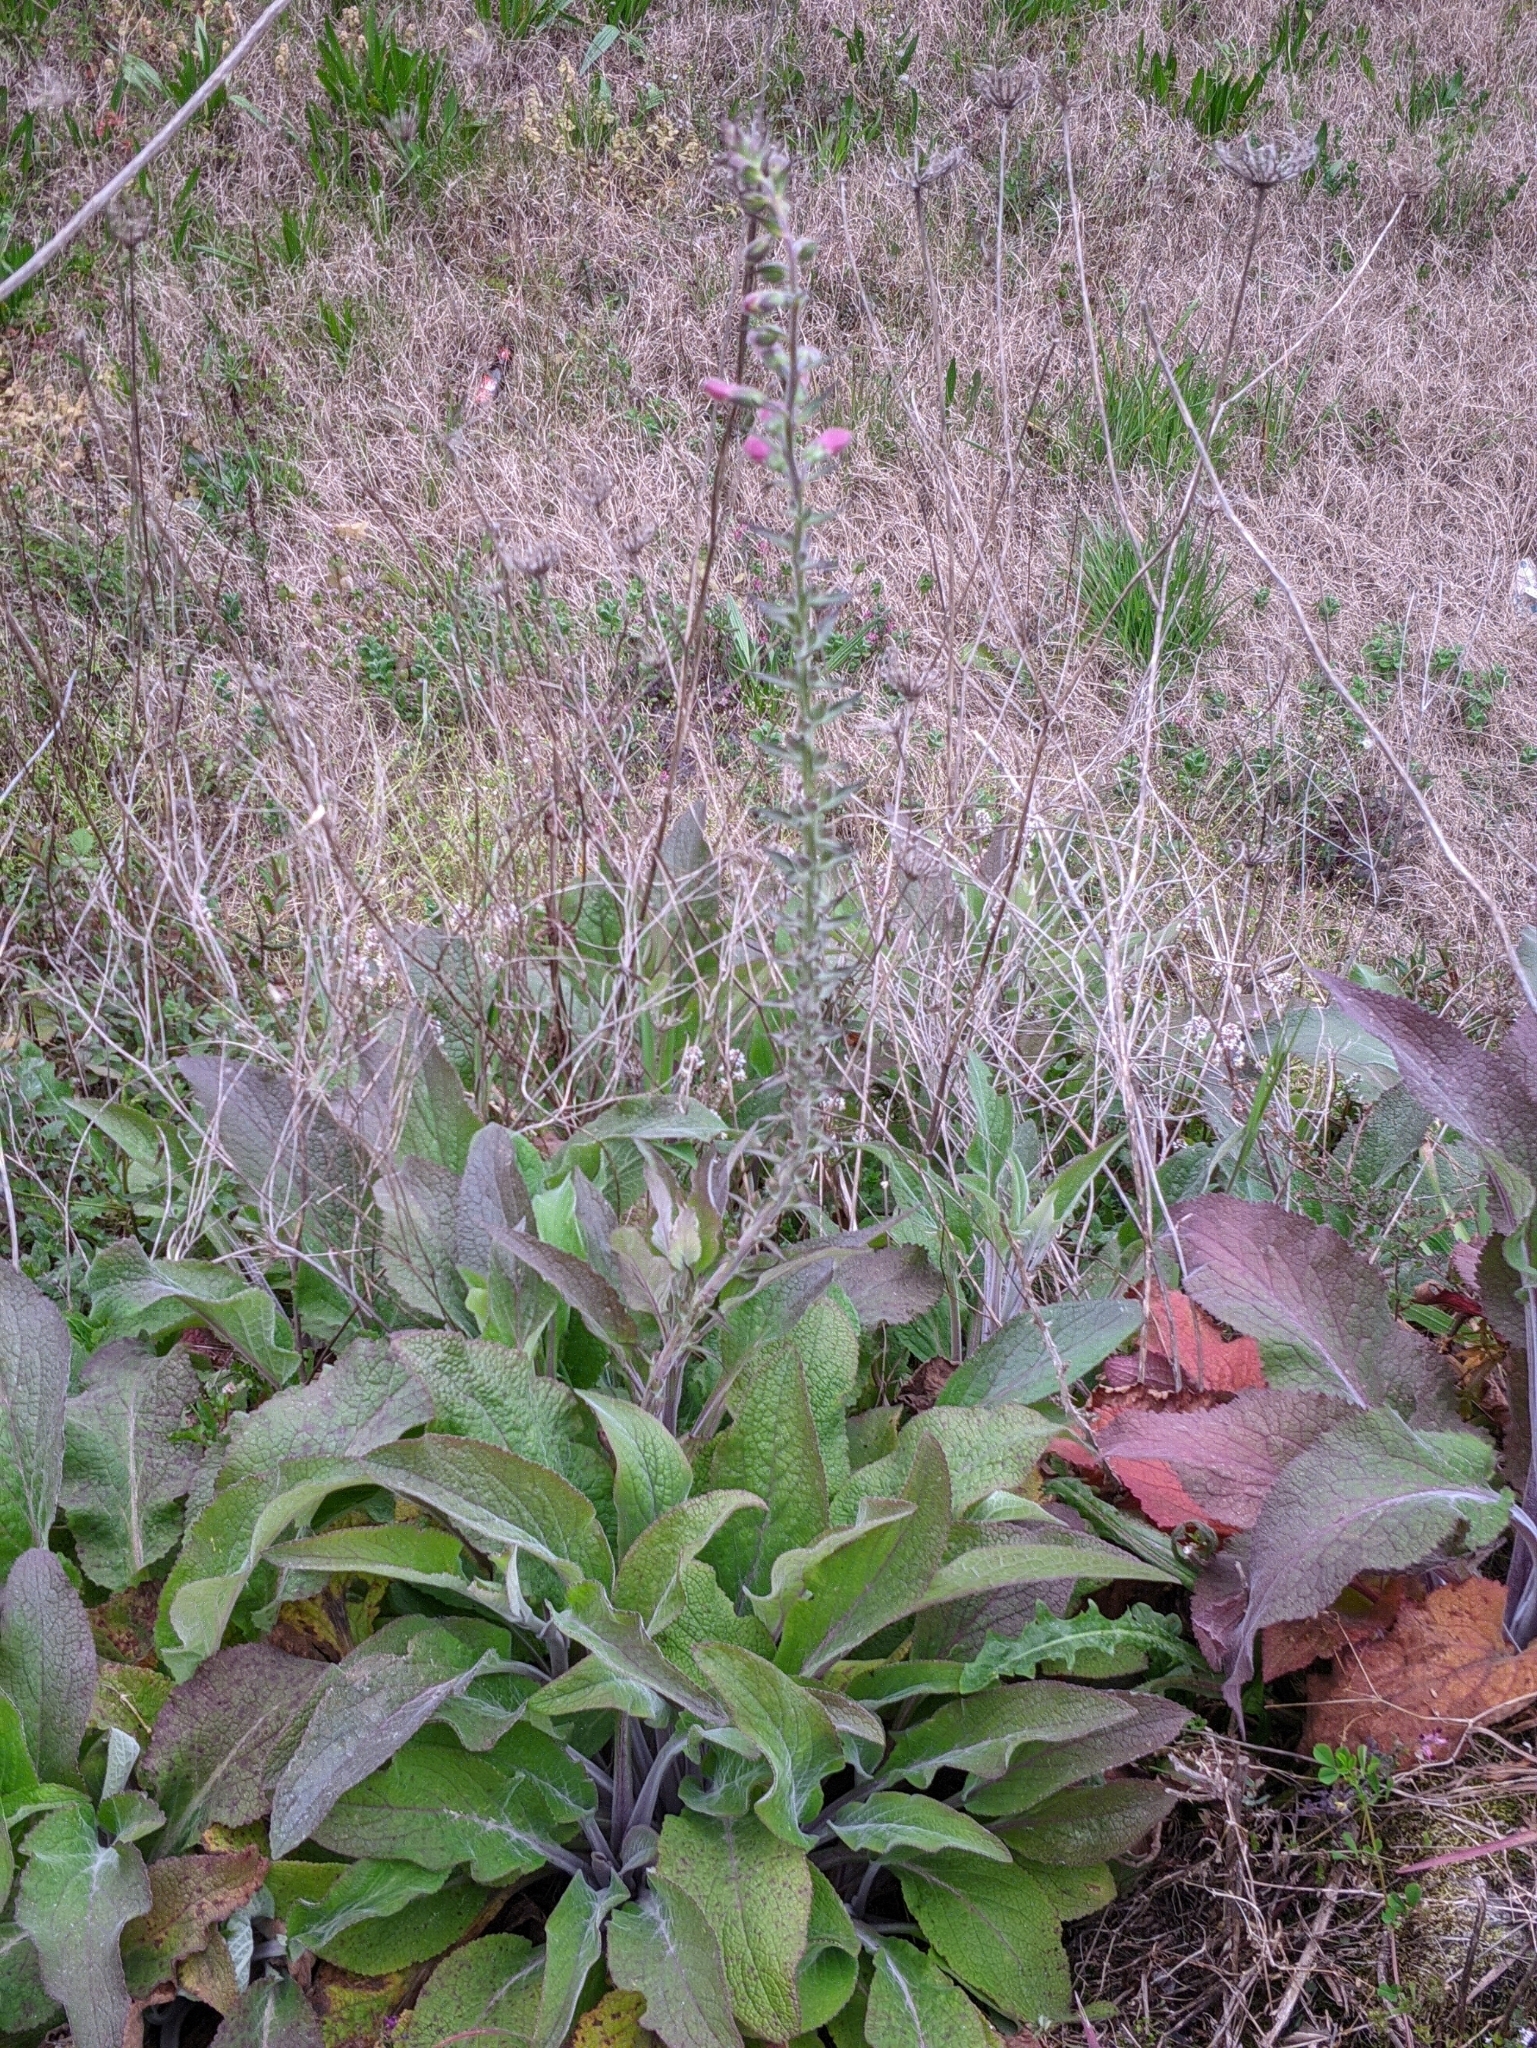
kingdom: Plantae
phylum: Tracheophyta
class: Magnoliopsida
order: Lamiales
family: Plantaginaceae
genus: Digitalis
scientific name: Digitalis purpurea
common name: Foxglove
